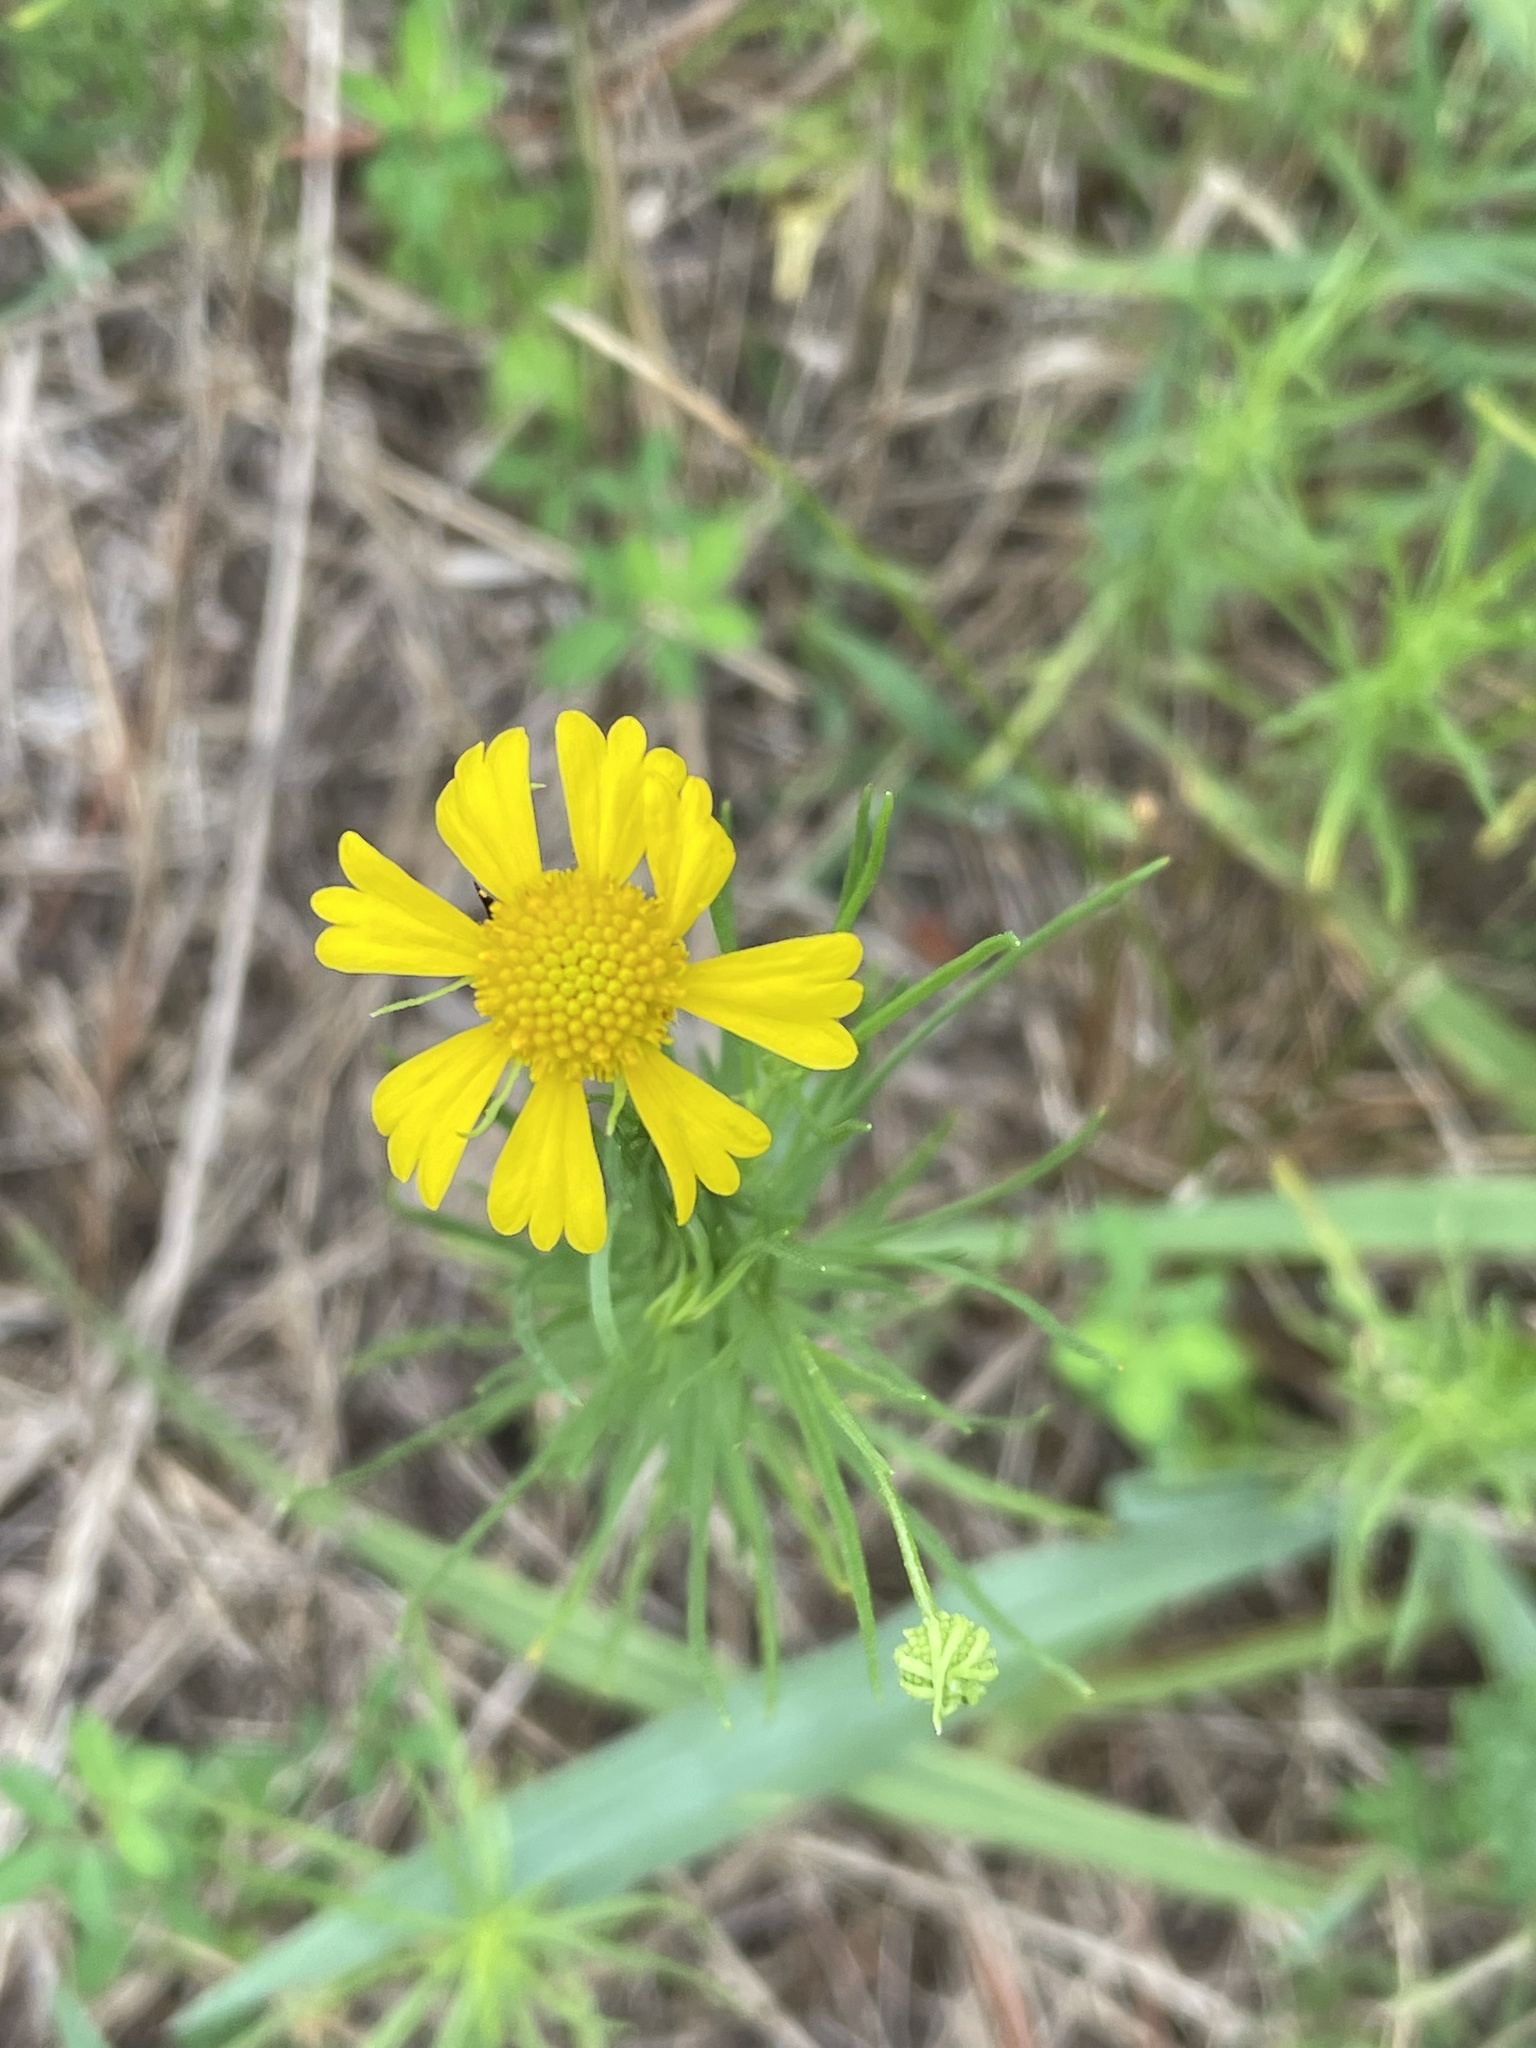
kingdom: Plantae
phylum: Tracheophyta
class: Magnoliopsida
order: Asterales
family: Asteraceae
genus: Helenium
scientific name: Helenium amarum
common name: Bitter sneezeweed
